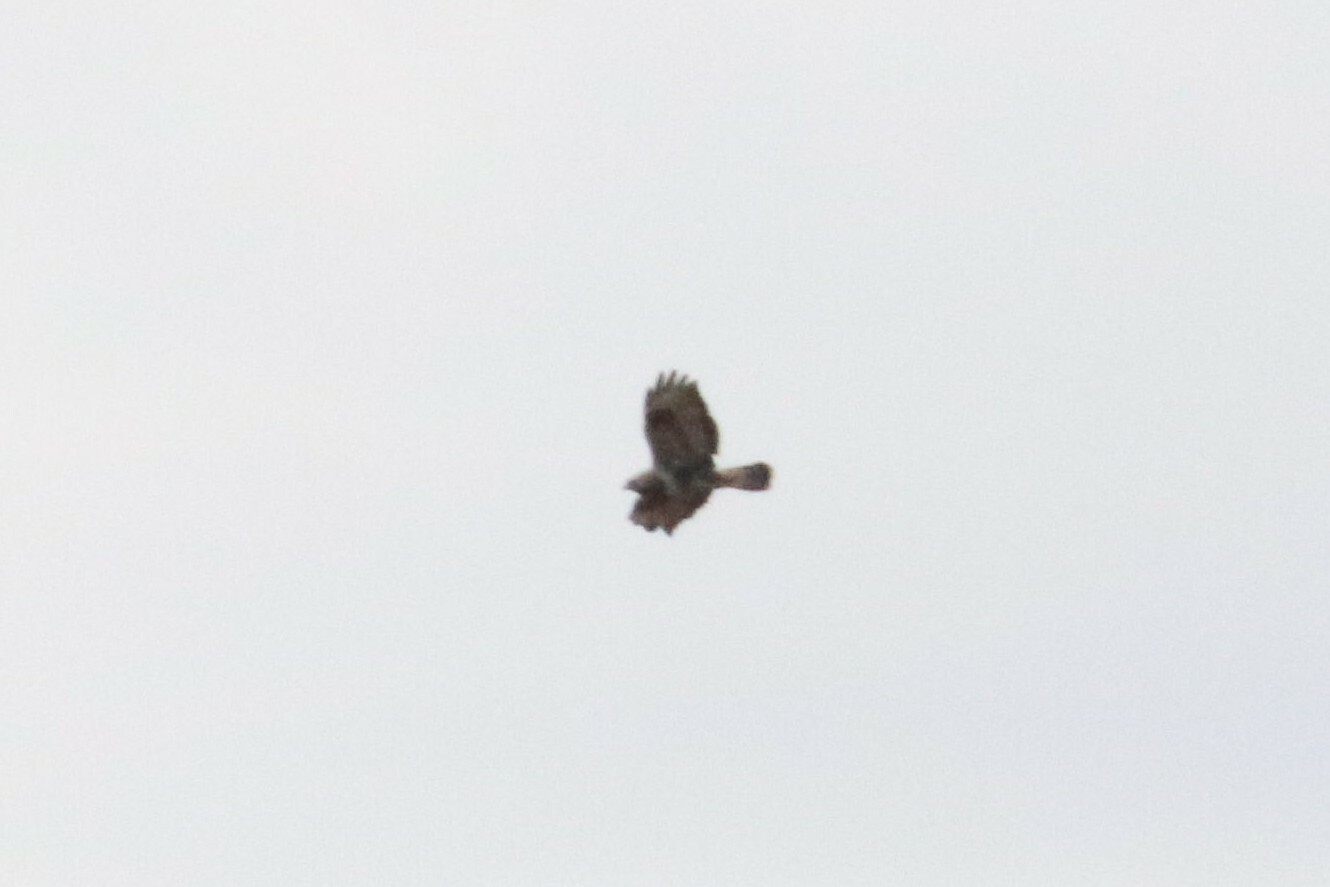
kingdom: Animalia
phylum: Chordata
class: Aves
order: Accipitriformes
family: Accipitridae
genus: Buteo
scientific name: Buteo lagopus
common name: Rough-legged buzzard
